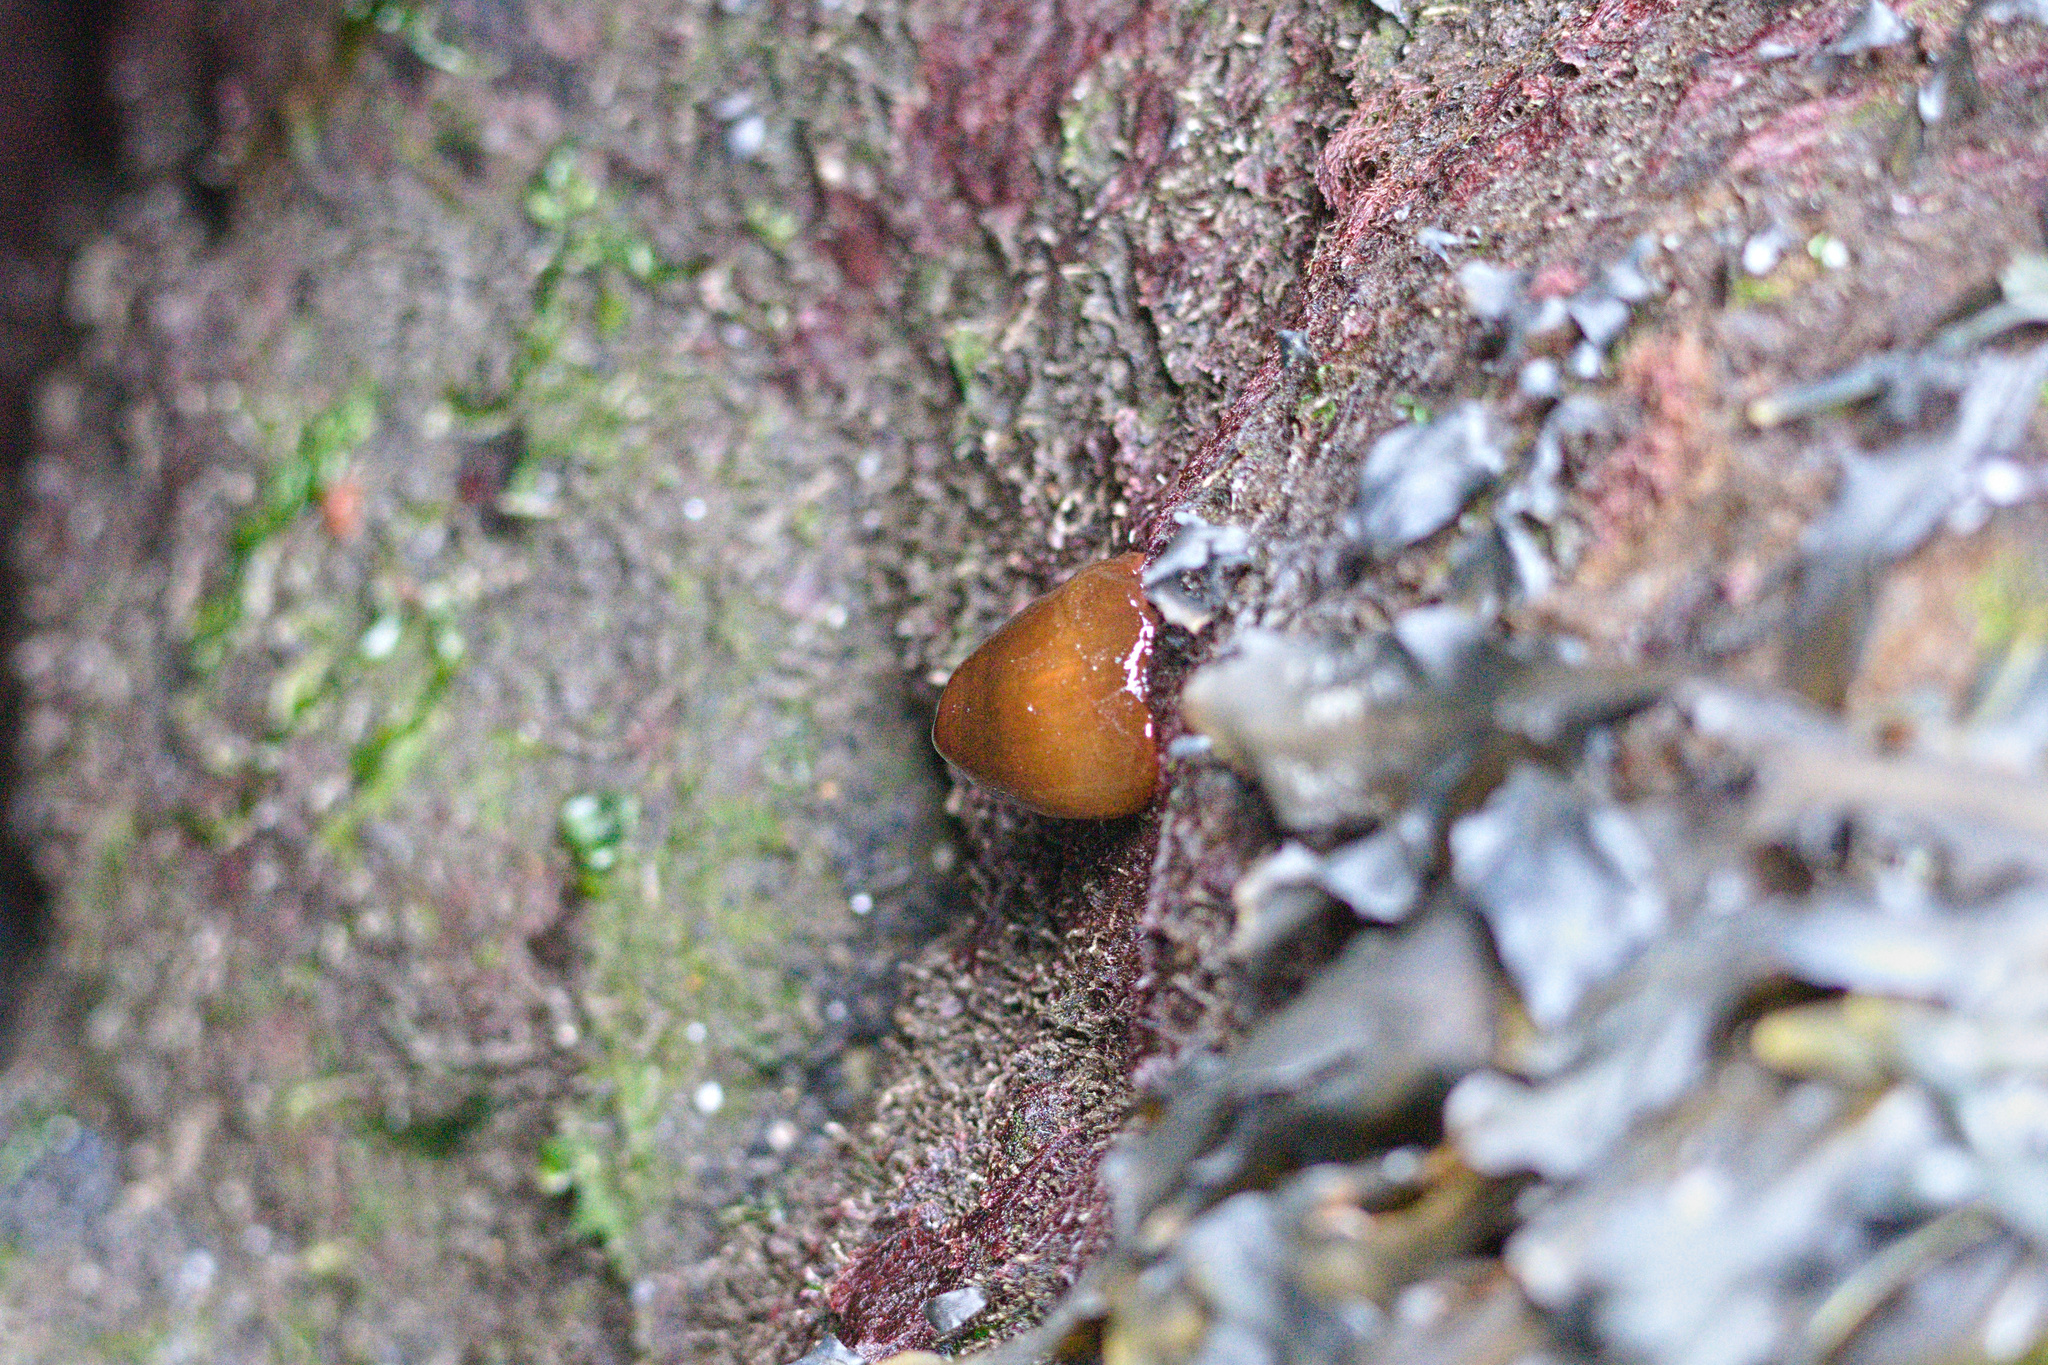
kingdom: Animalia
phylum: Cnidaria
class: Anthozoa
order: Actiniaria
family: Metridiidae
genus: Metridium
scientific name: Metridium senile
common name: Clonal plumose anemone
